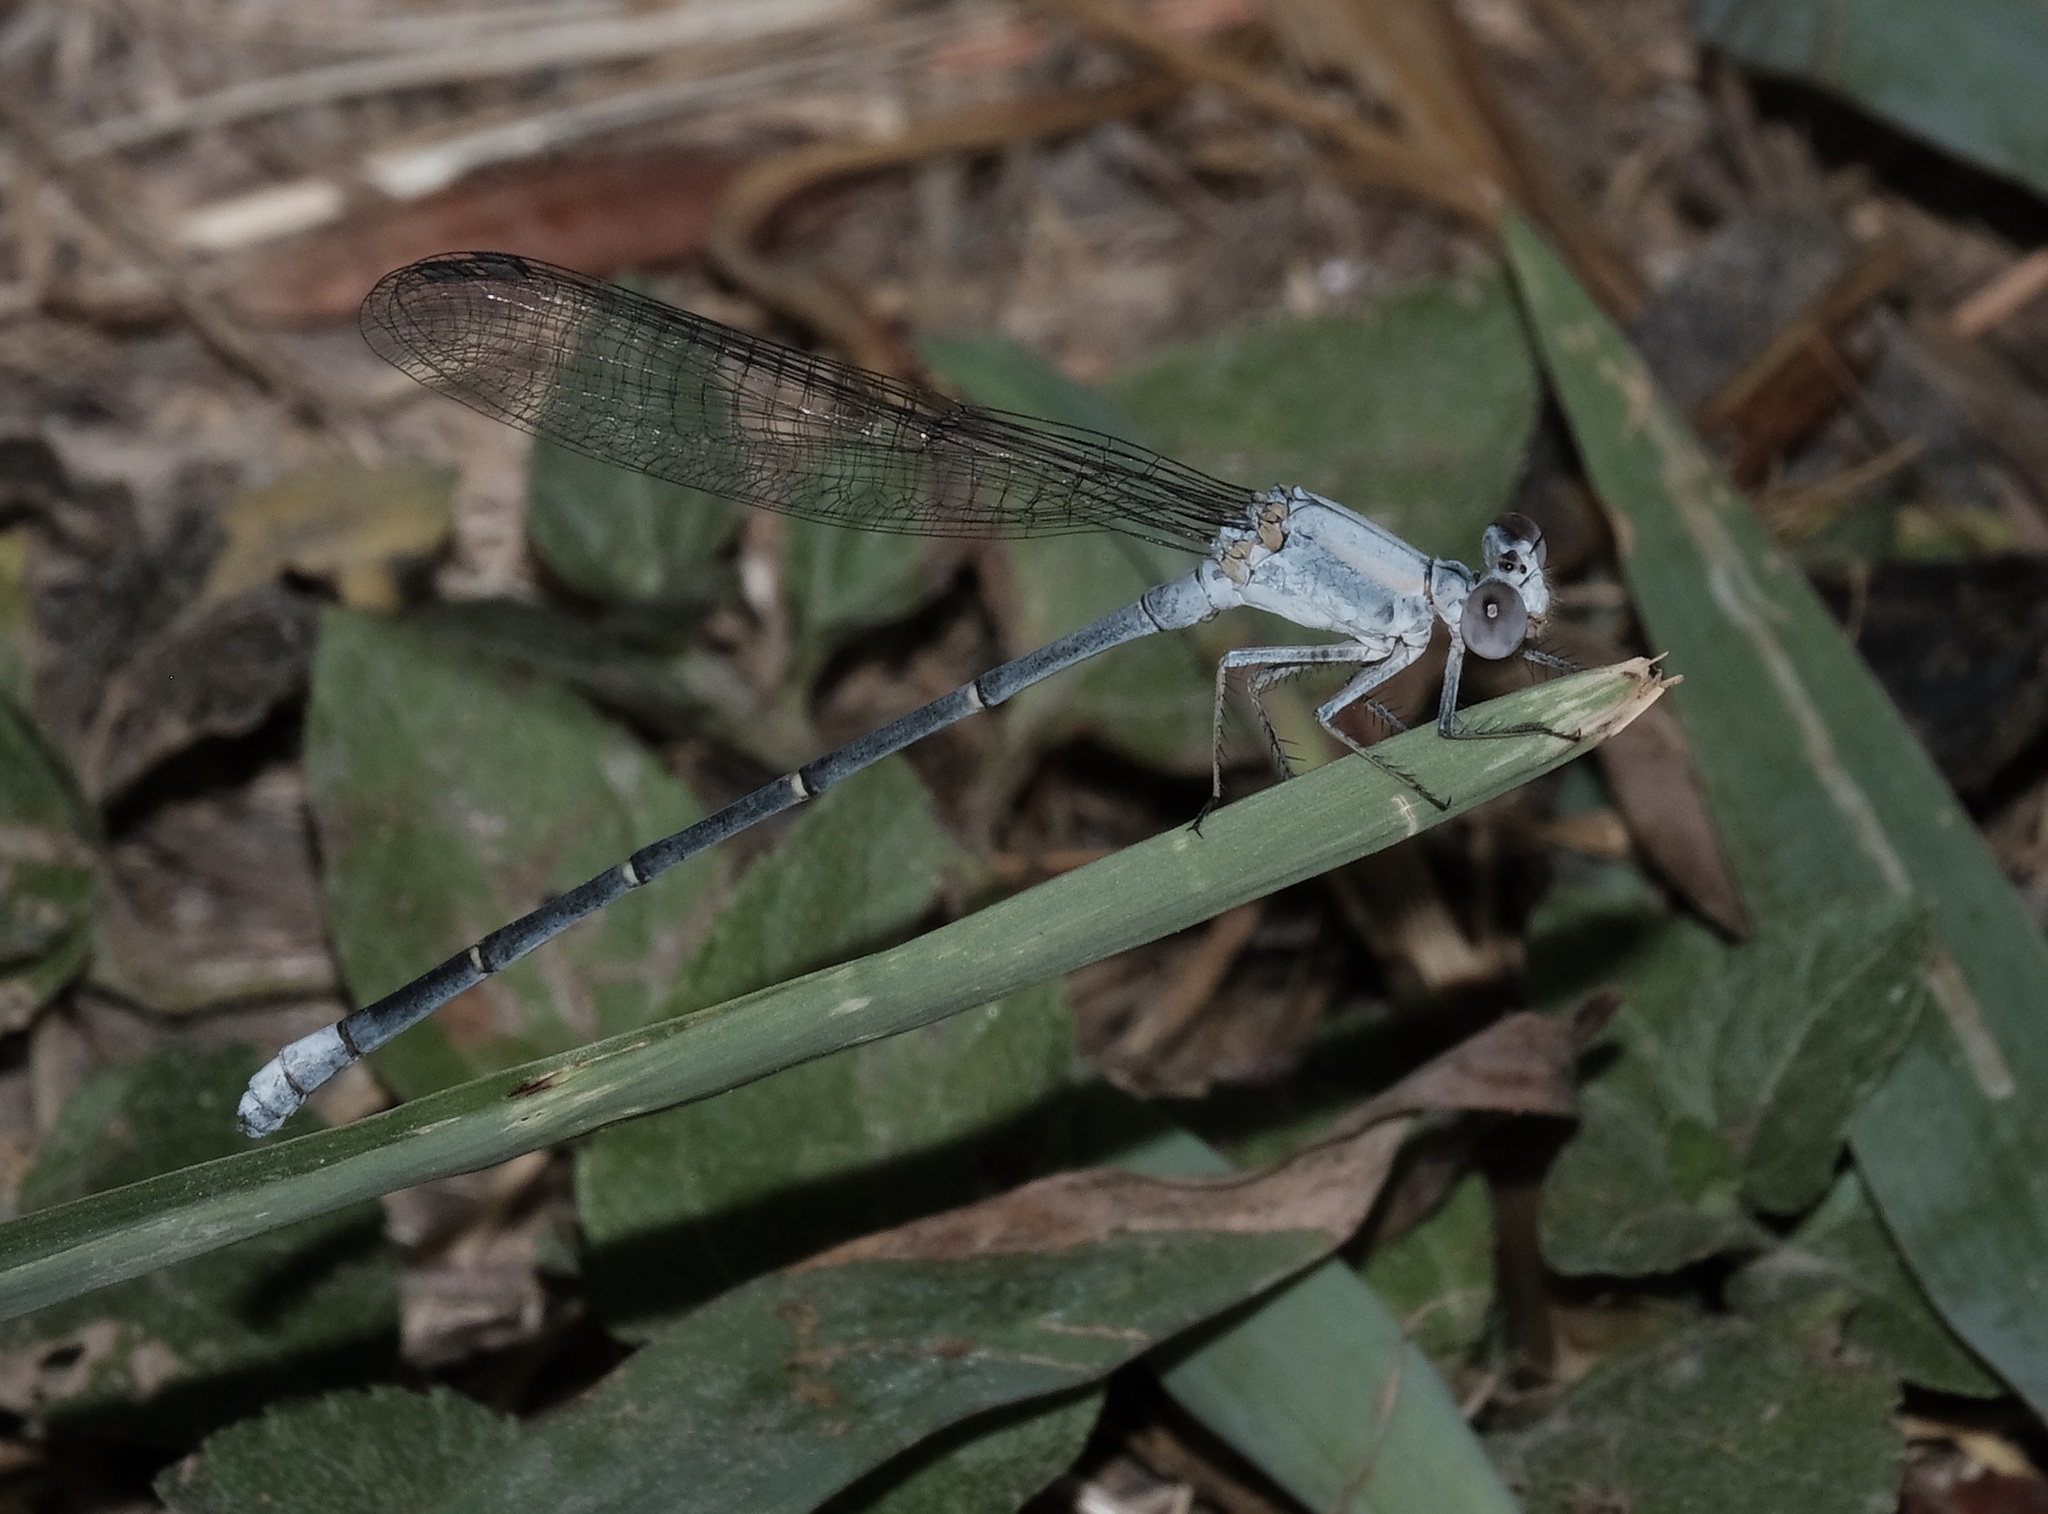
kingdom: Animalia
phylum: Arthropoda
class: Insecta
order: Odonata
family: Coenagrionidae
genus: Argia
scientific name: Argia moesta
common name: Powdered dancer
